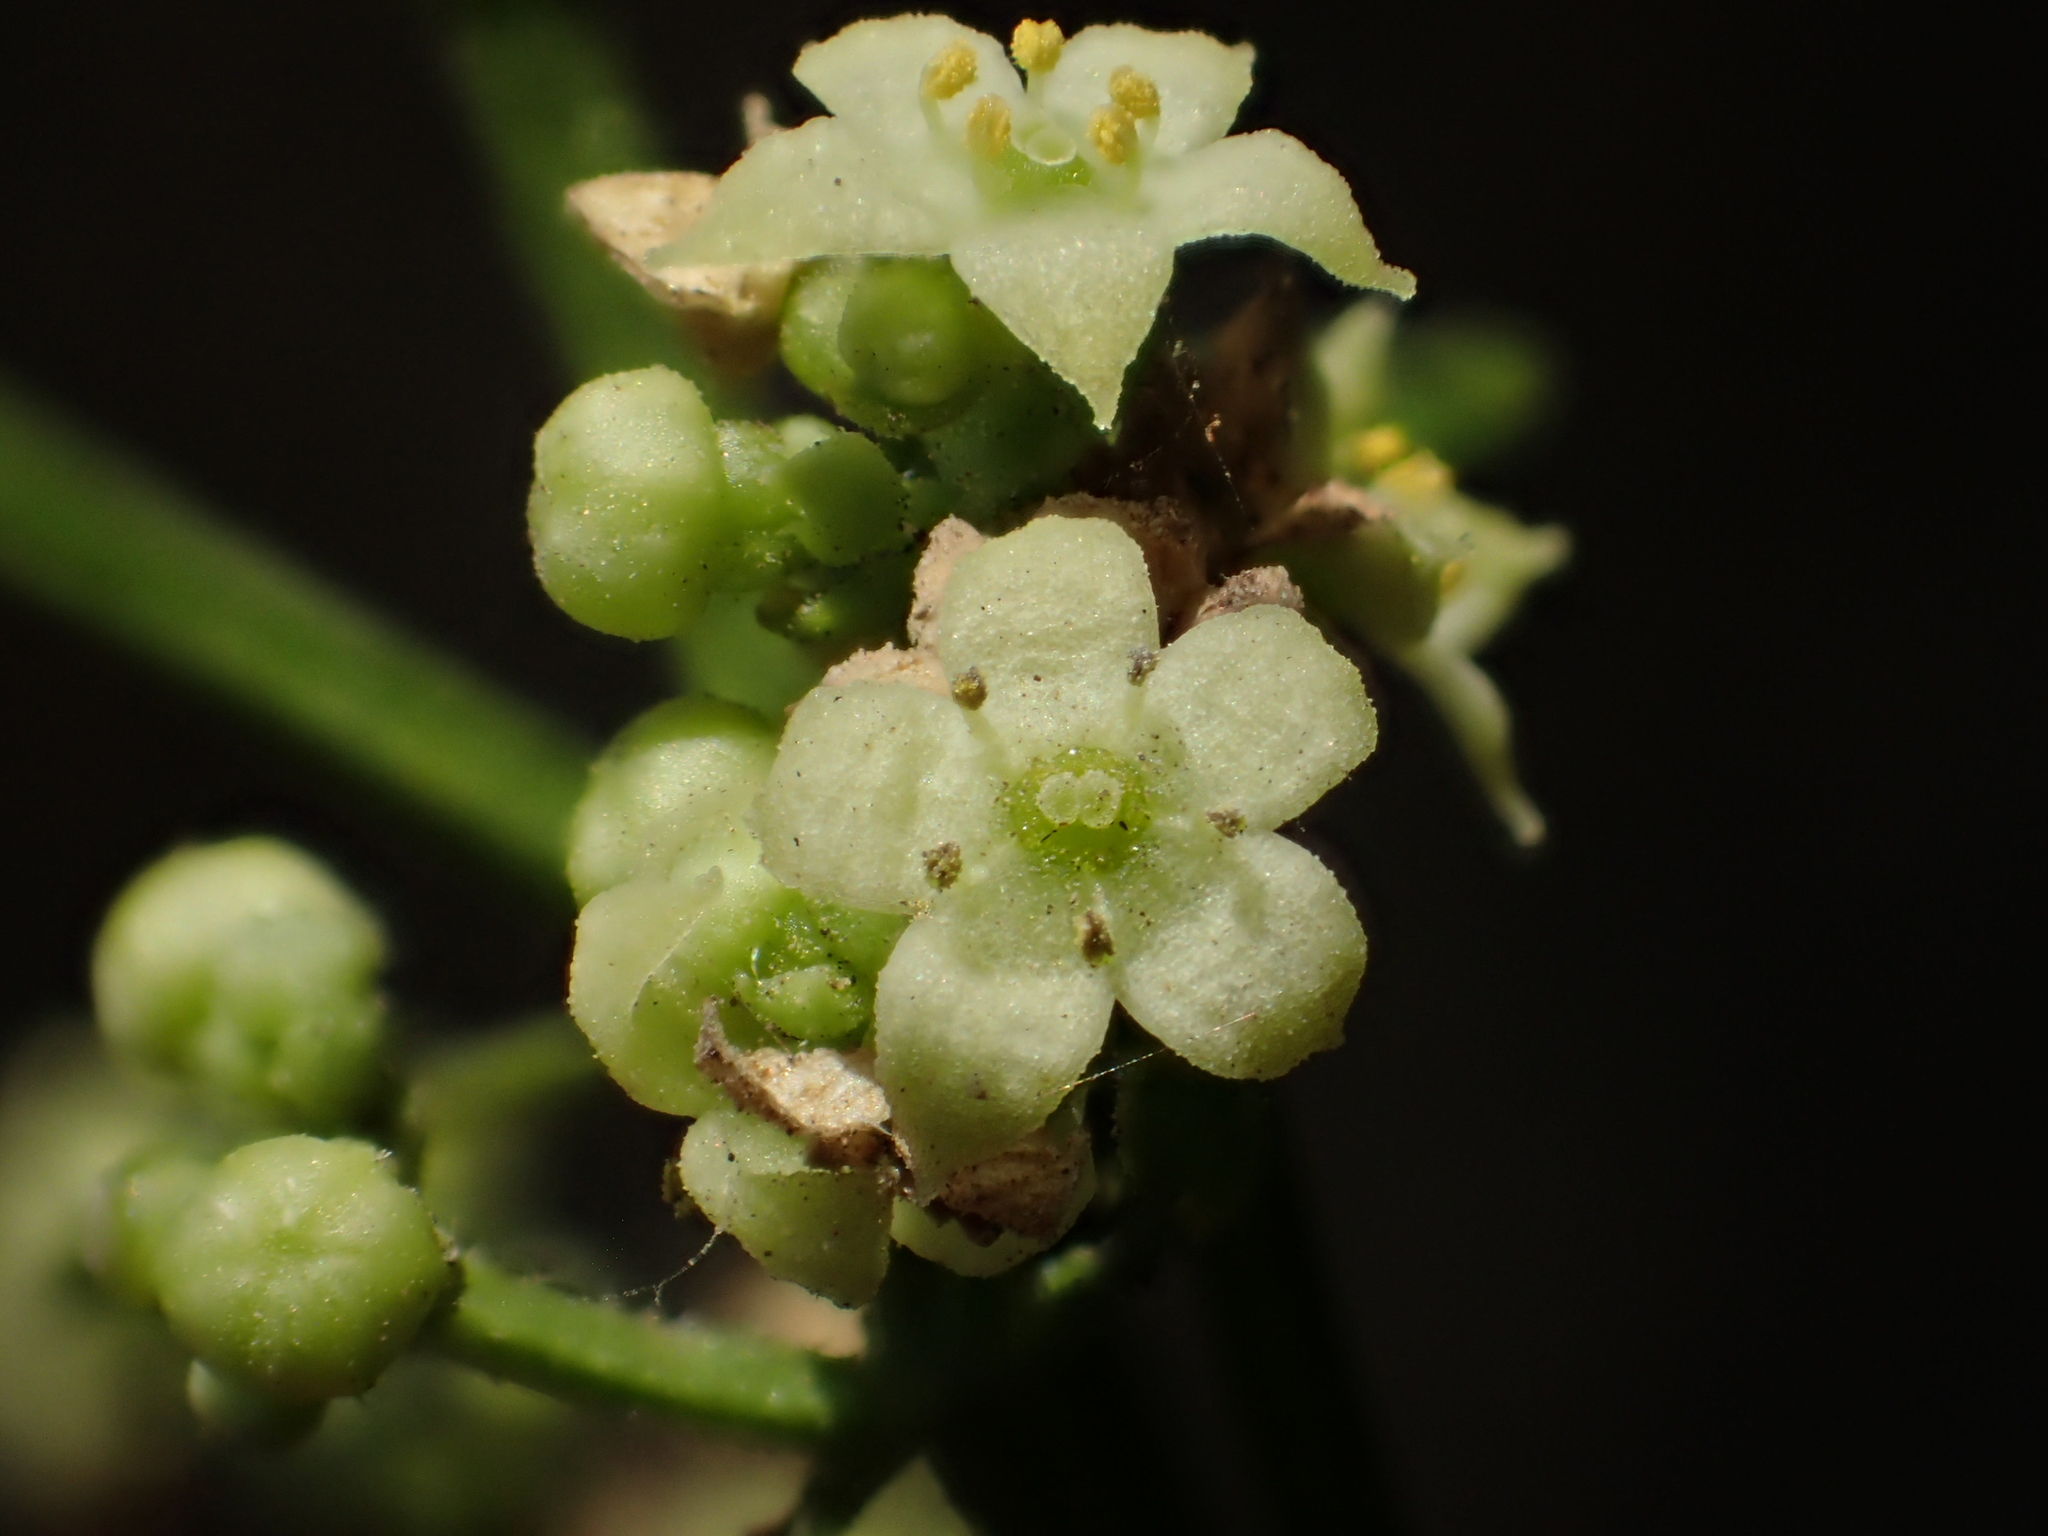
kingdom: Plantae
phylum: Tracheophyta
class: Magnoliopsida
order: Gentianales
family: Rubiaceae
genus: Rubia
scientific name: Rubia argyi
